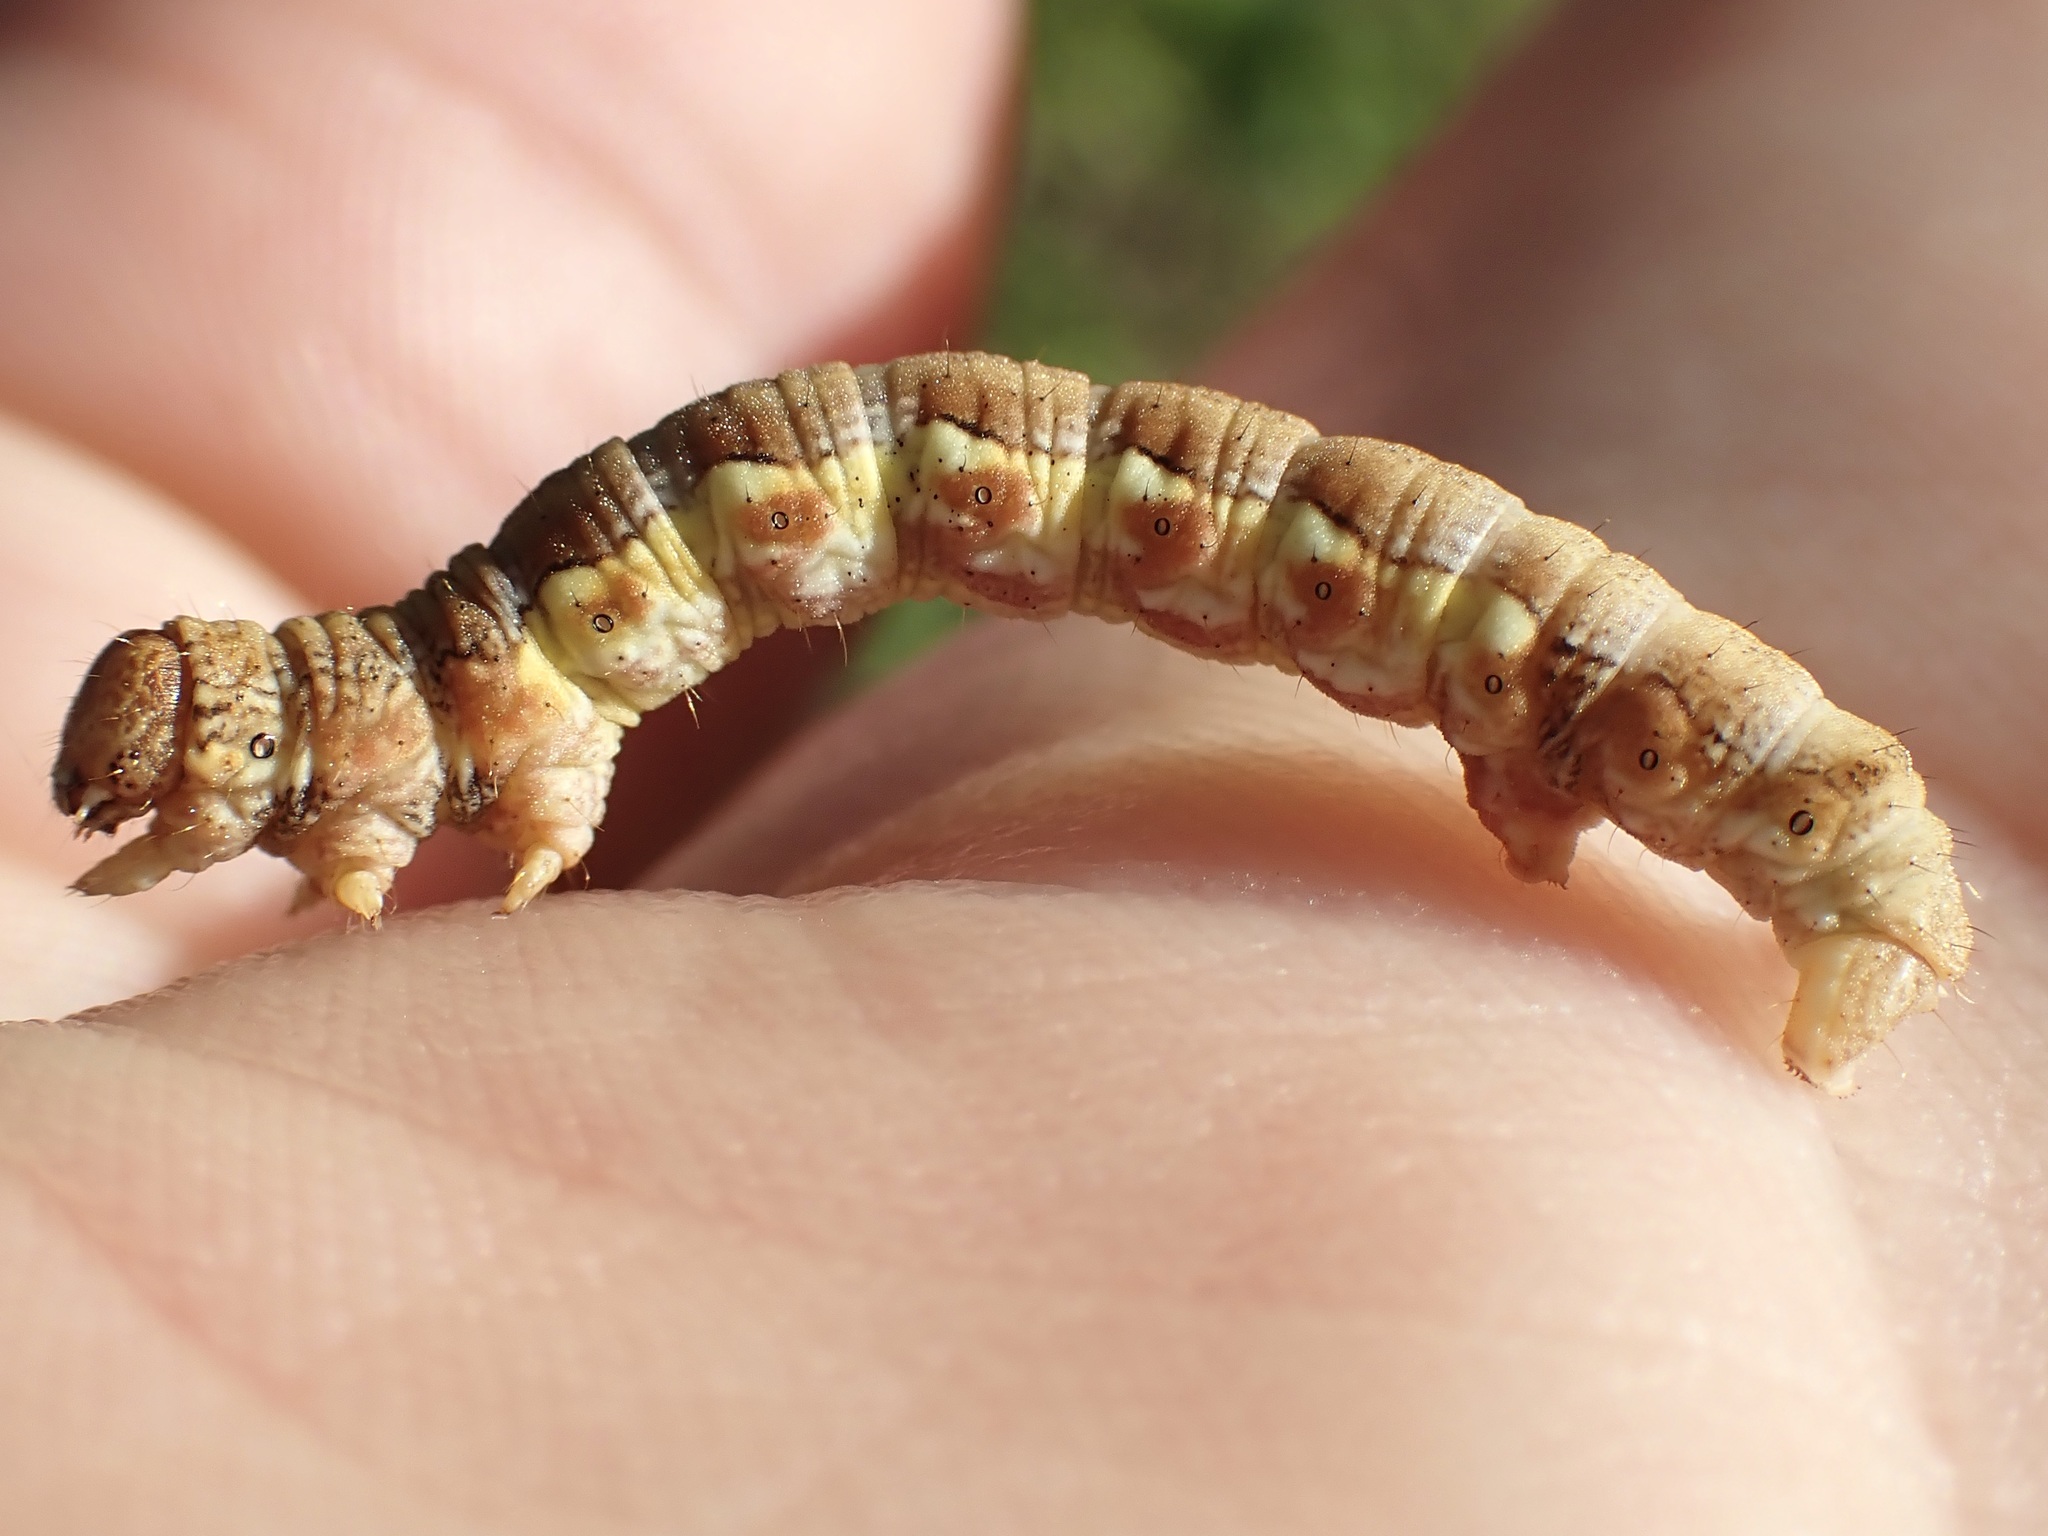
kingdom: Animalia
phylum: Arthropoda
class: Insecta
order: Lepidoptera
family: Geometridae
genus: Erannis
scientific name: Erannis defoliaria
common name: Mottled umber
